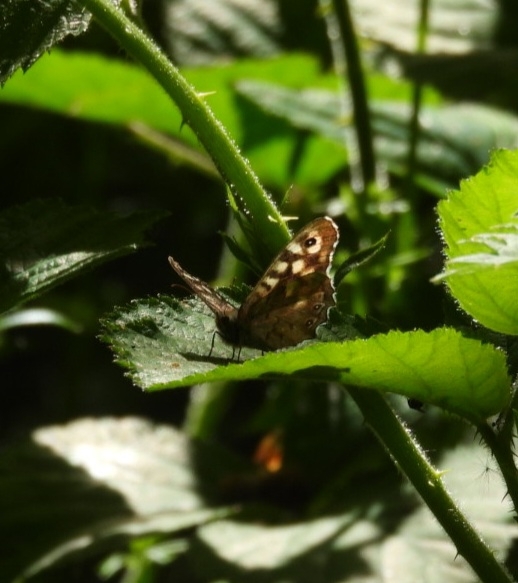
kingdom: Animalia
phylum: Arthropoda
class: Insecta
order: Lepidoptera
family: Nymphalidae
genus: Pararge
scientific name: Pararge aegeria
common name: Speckled wood
